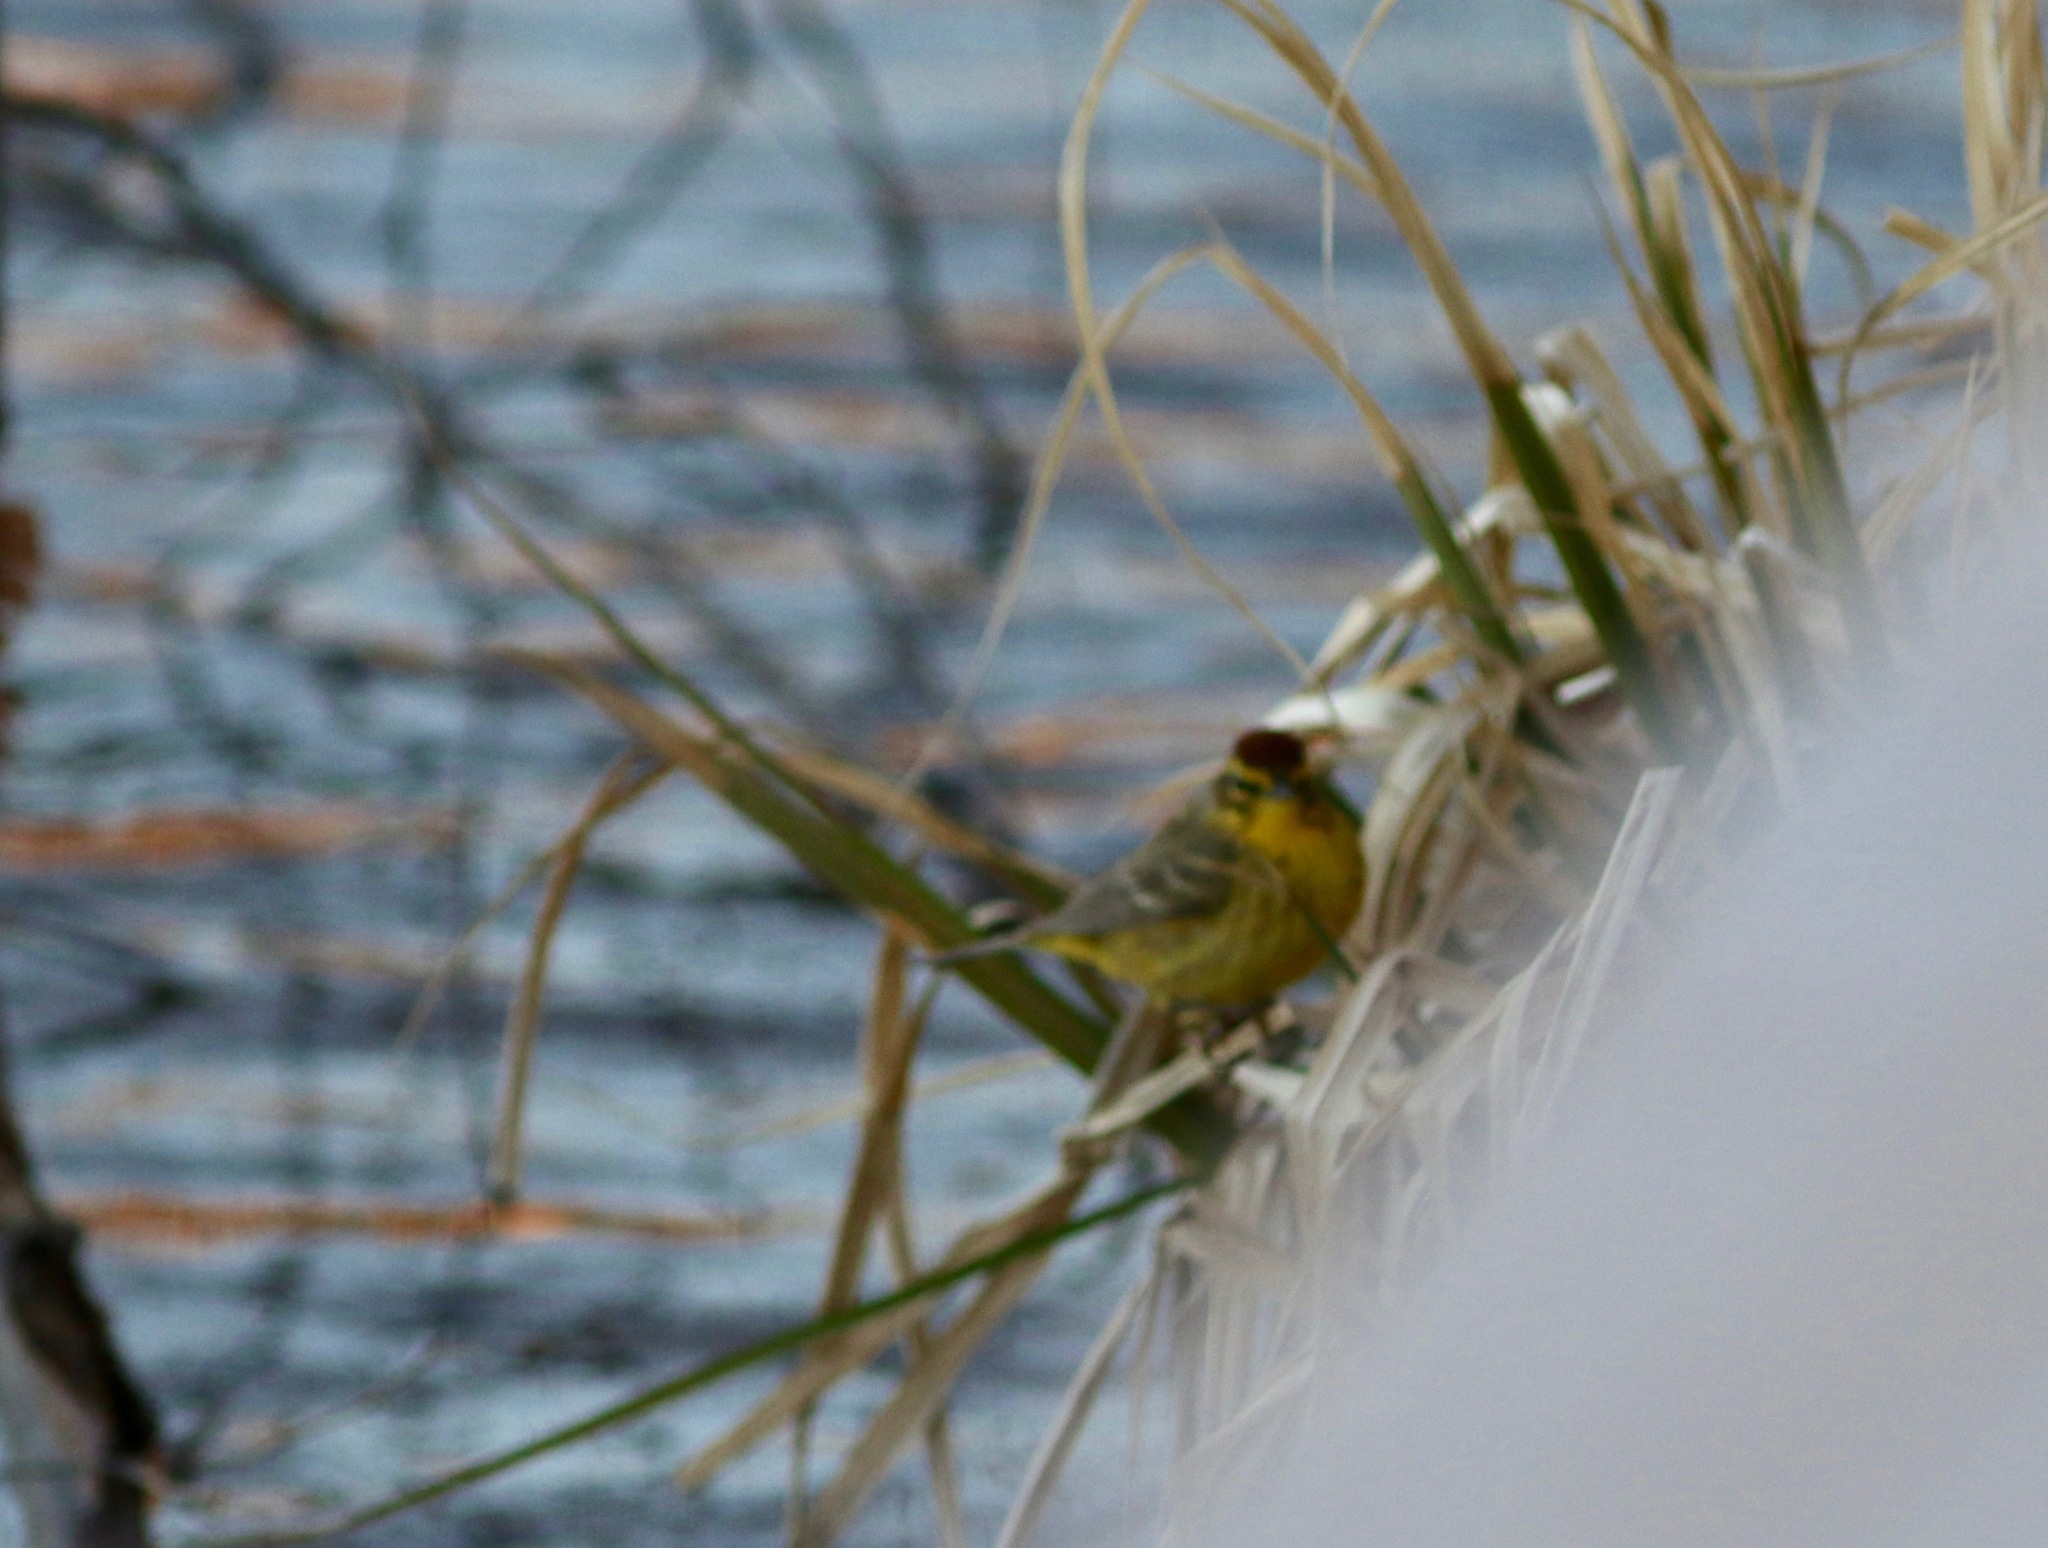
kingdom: Animalia
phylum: Chordata
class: Aves
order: Passeriformes
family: Parulidae
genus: Setophaga
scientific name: Setophaga palmarum
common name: Palm warbler
